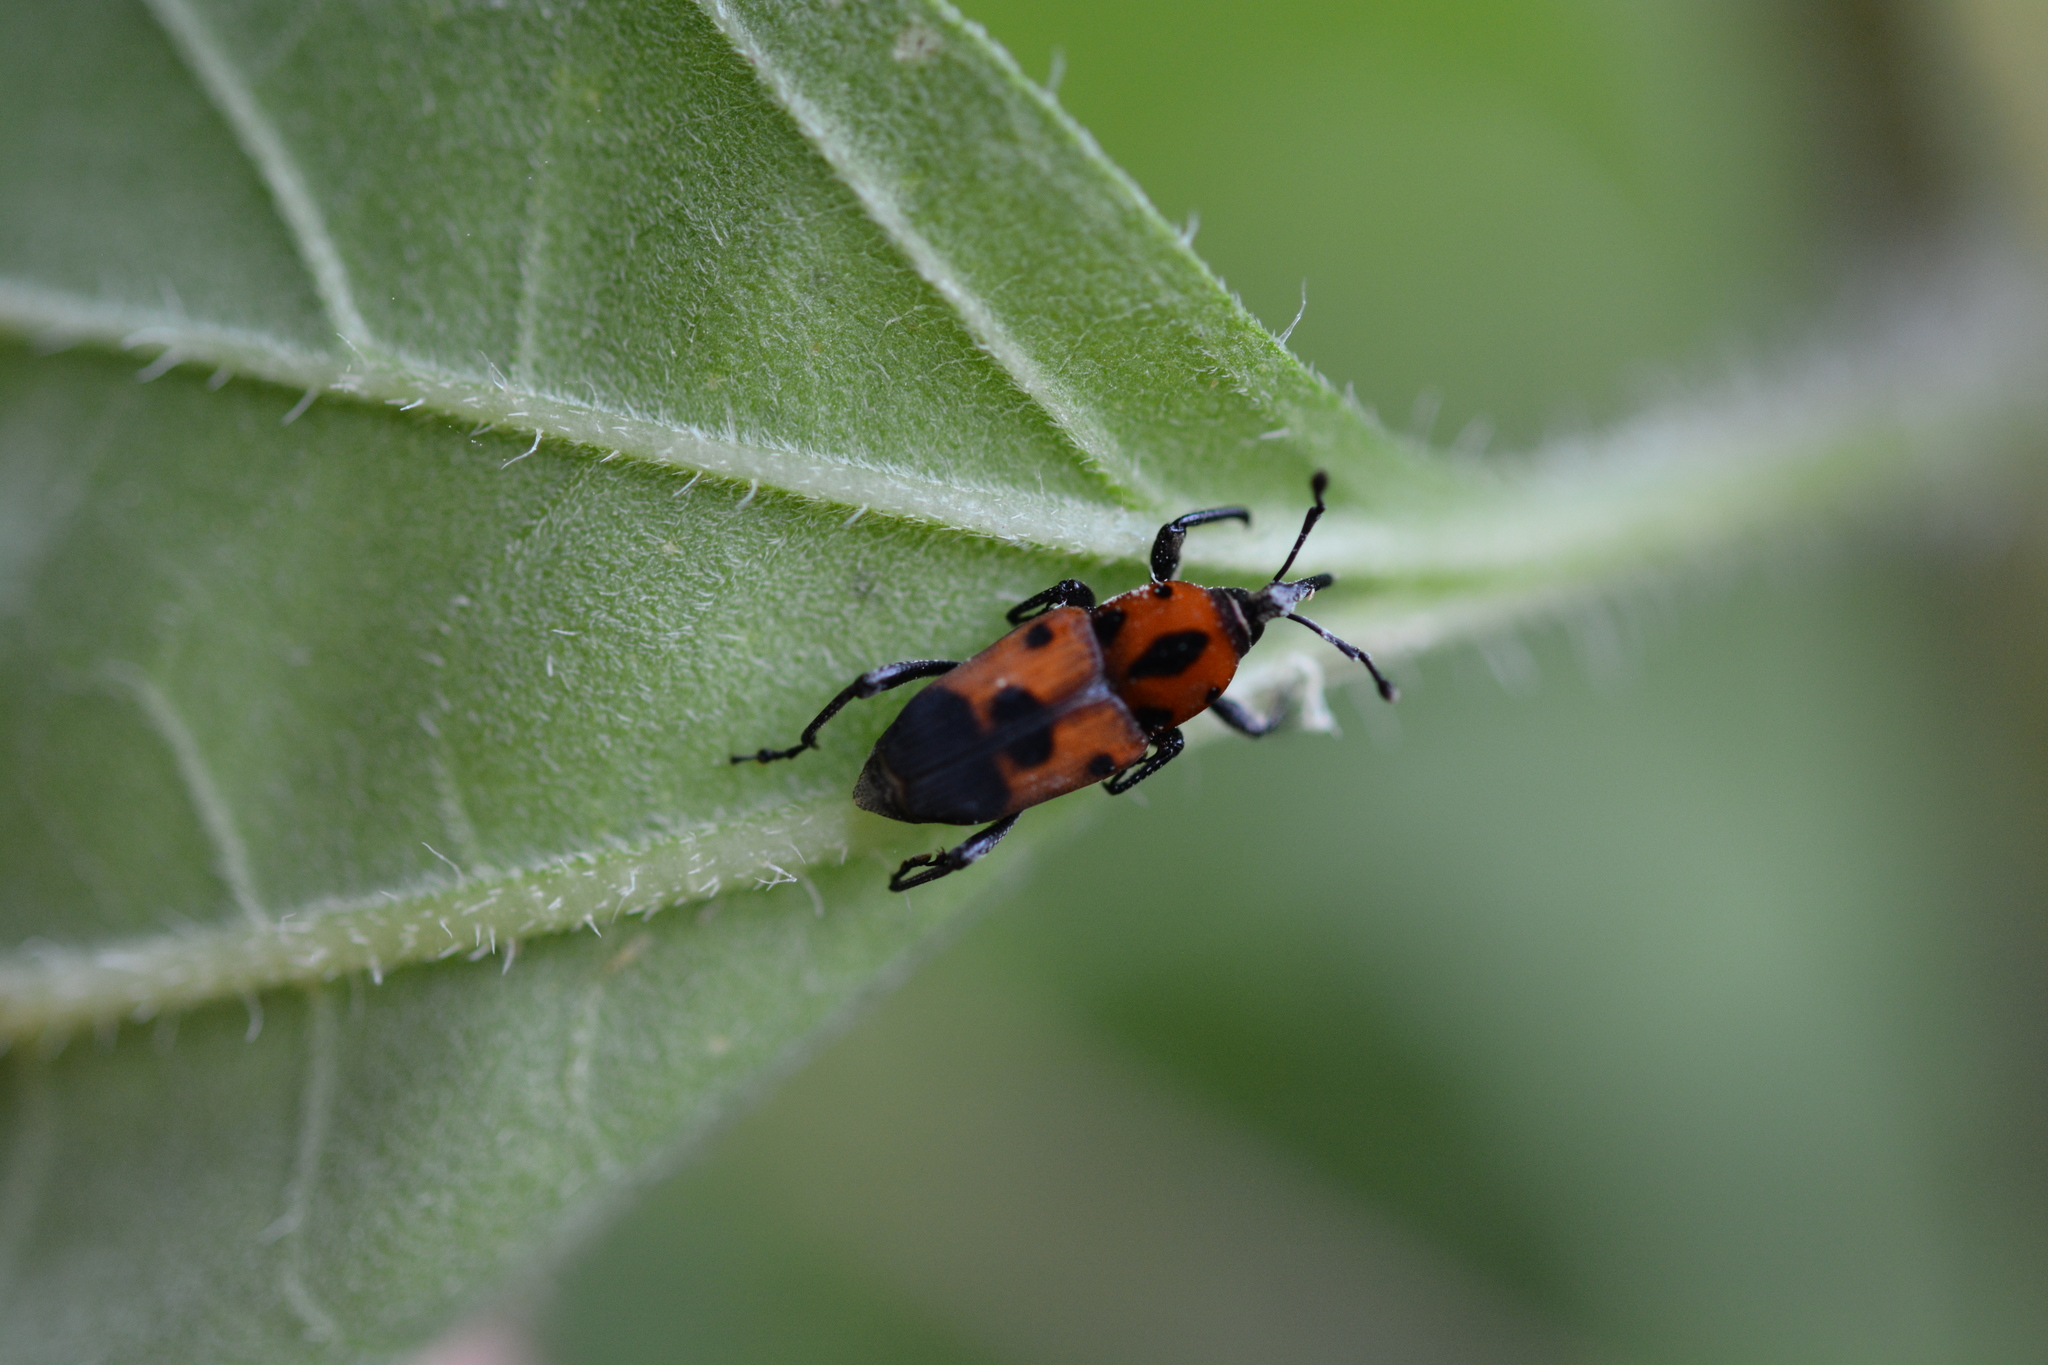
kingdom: Animalia
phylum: Arthropoda
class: Insecta
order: Coleoptera
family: Dryophthoridae
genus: Rhodobaenus
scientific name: Rhodobaenus quinquepunctatus
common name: Cocklebur weevil
